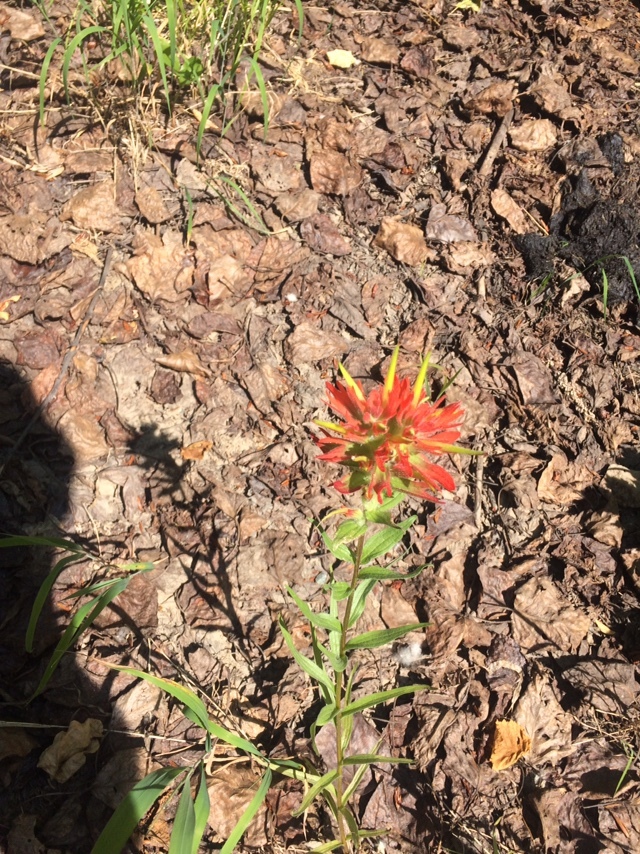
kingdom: Plantae
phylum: Tracheophyta
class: Magnoliopsida
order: Lamiales
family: Orobanchaceae
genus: Castilleja
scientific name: Castilleja miniata
